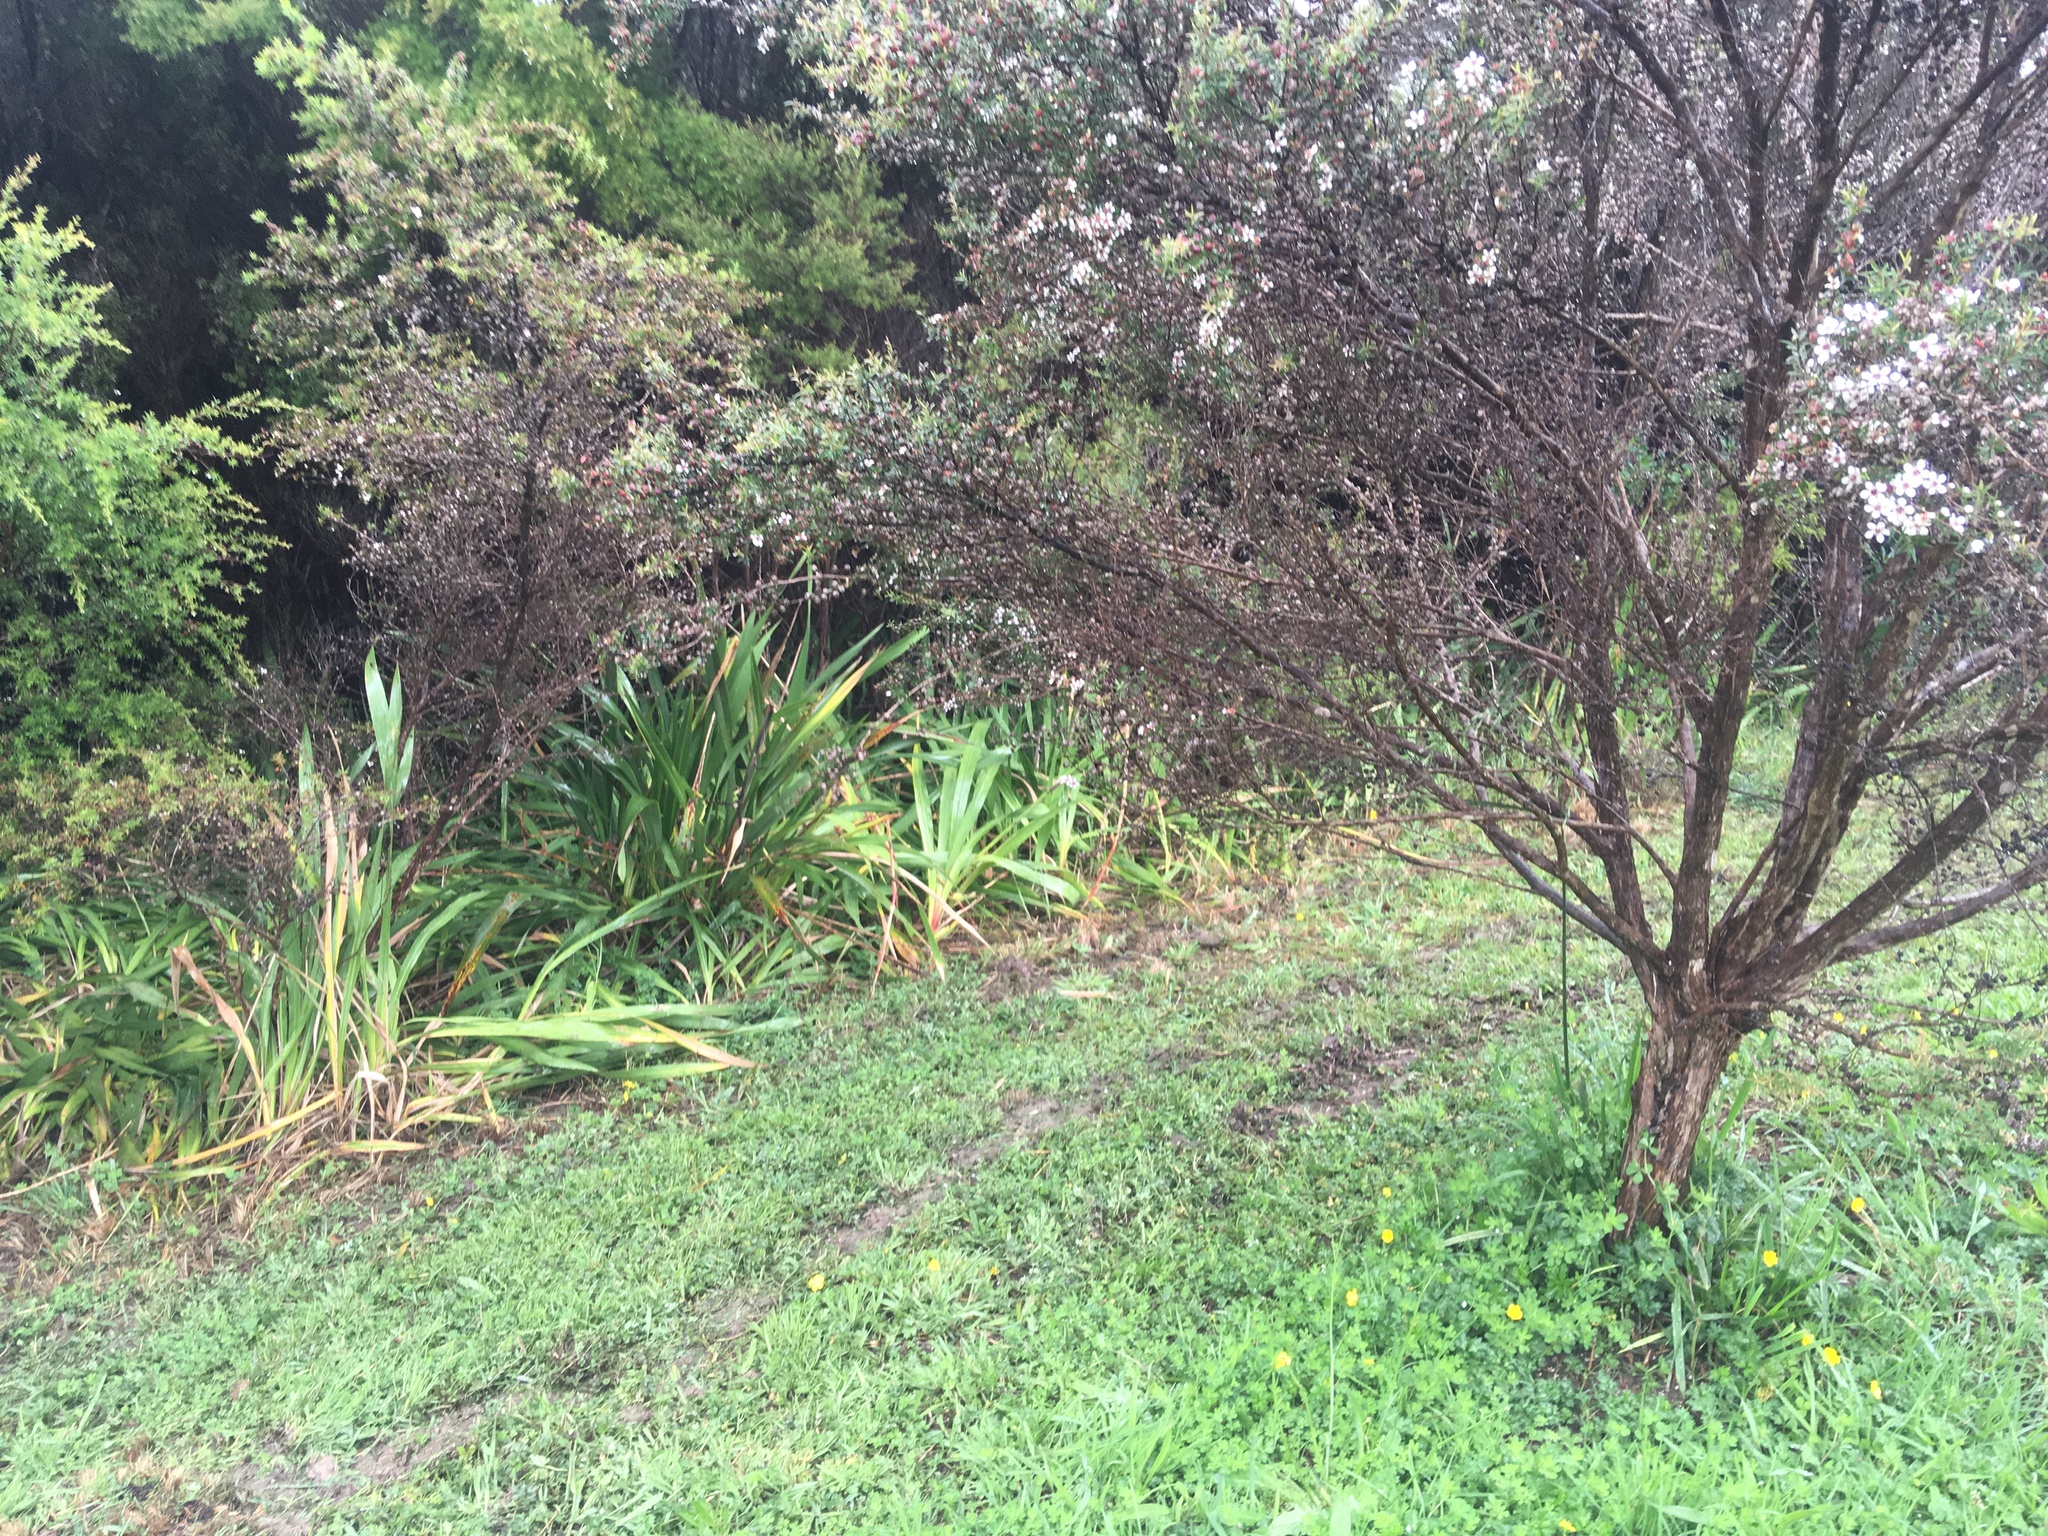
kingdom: Plantae
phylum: Tracheophyta
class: Magnoliopsida
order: Myrtales
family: Myrtaceae
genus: Leptospermum
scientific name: Leptospermum scoparium
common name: Broom tea-tree
